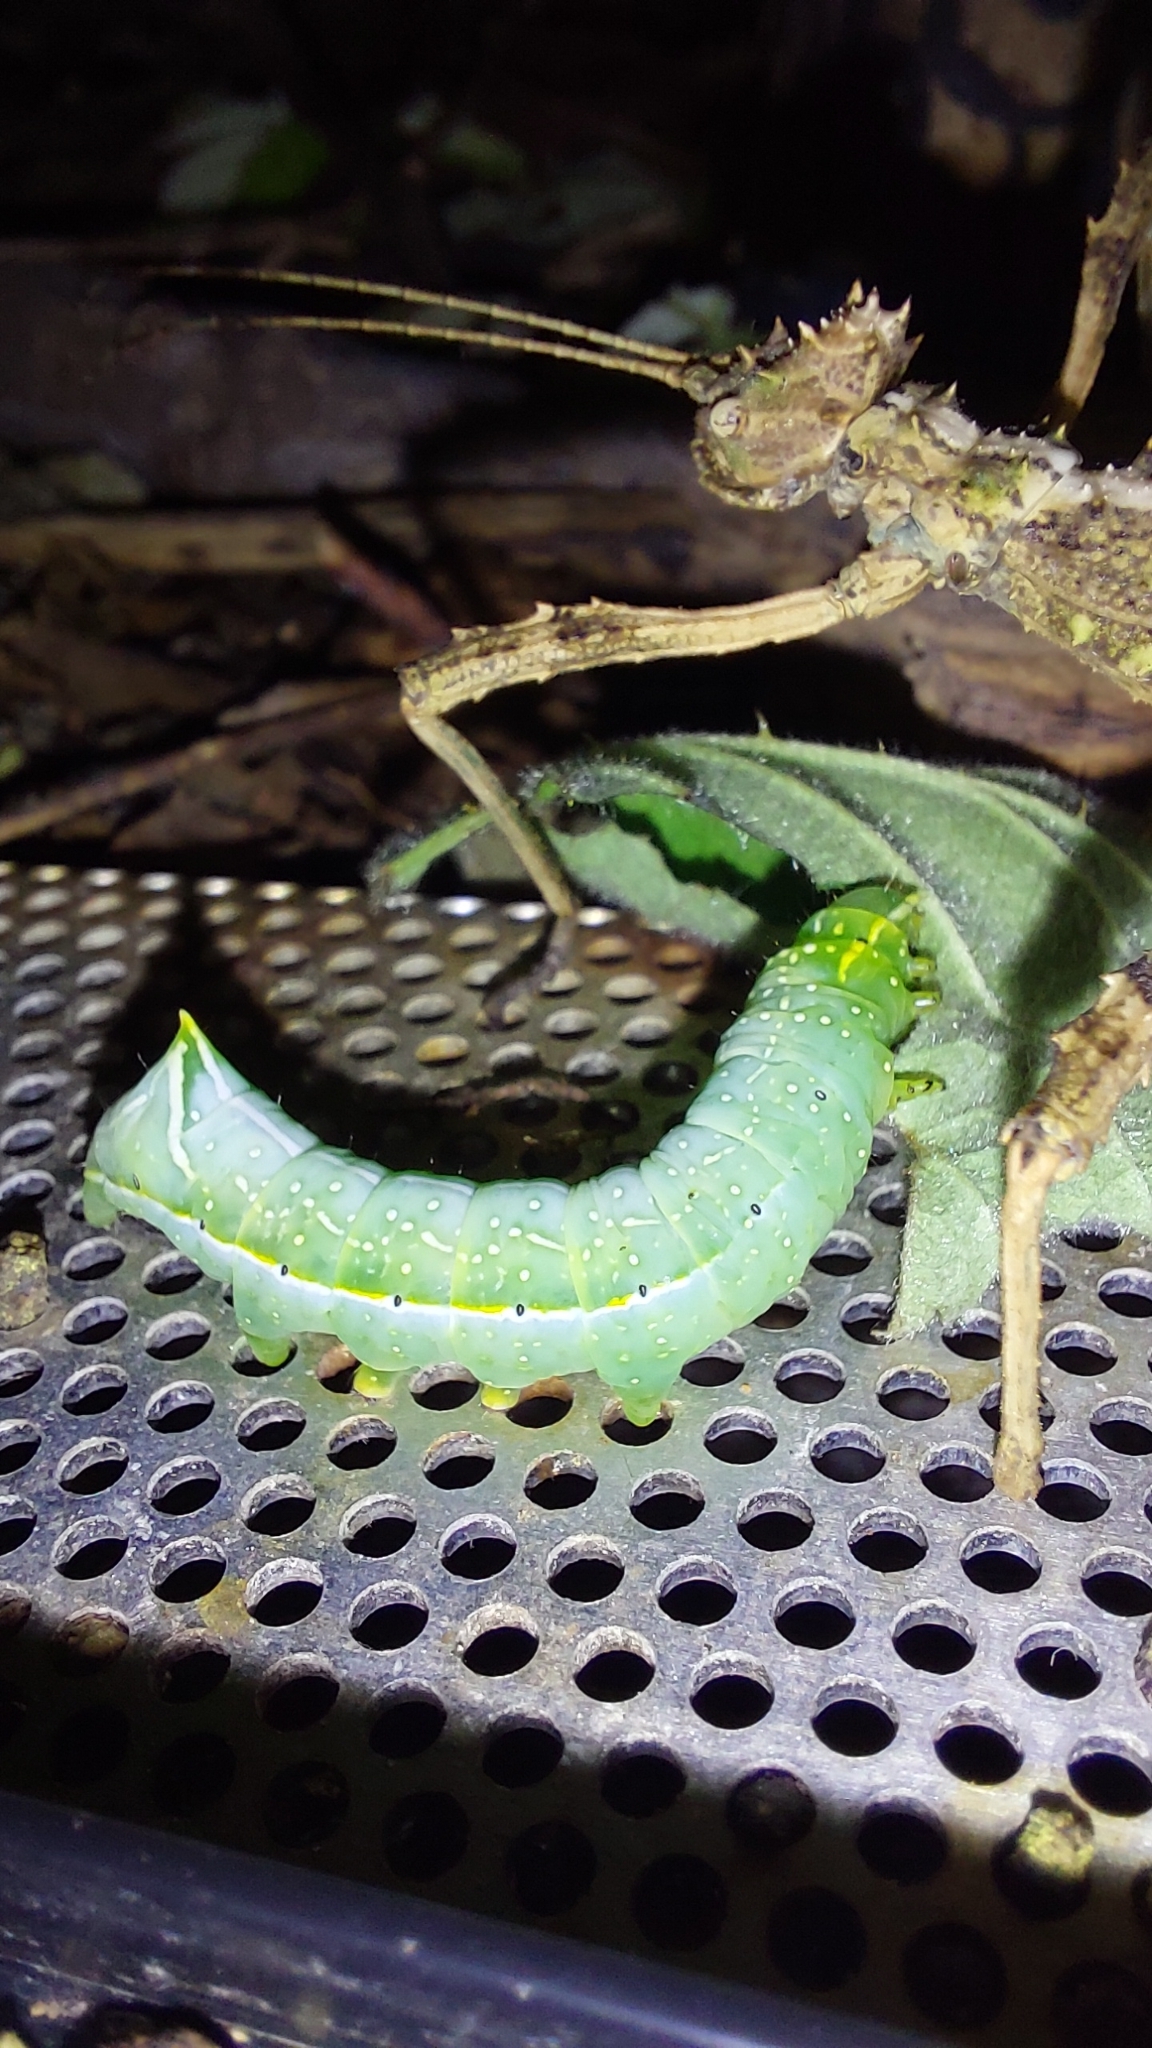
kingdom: Animalia
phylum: Arthropoda
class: Insecta
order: Lepidoptera
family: Noctuidae
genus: Amphipyra
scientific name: Amphipyra pyramidea
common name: Copper underwing
